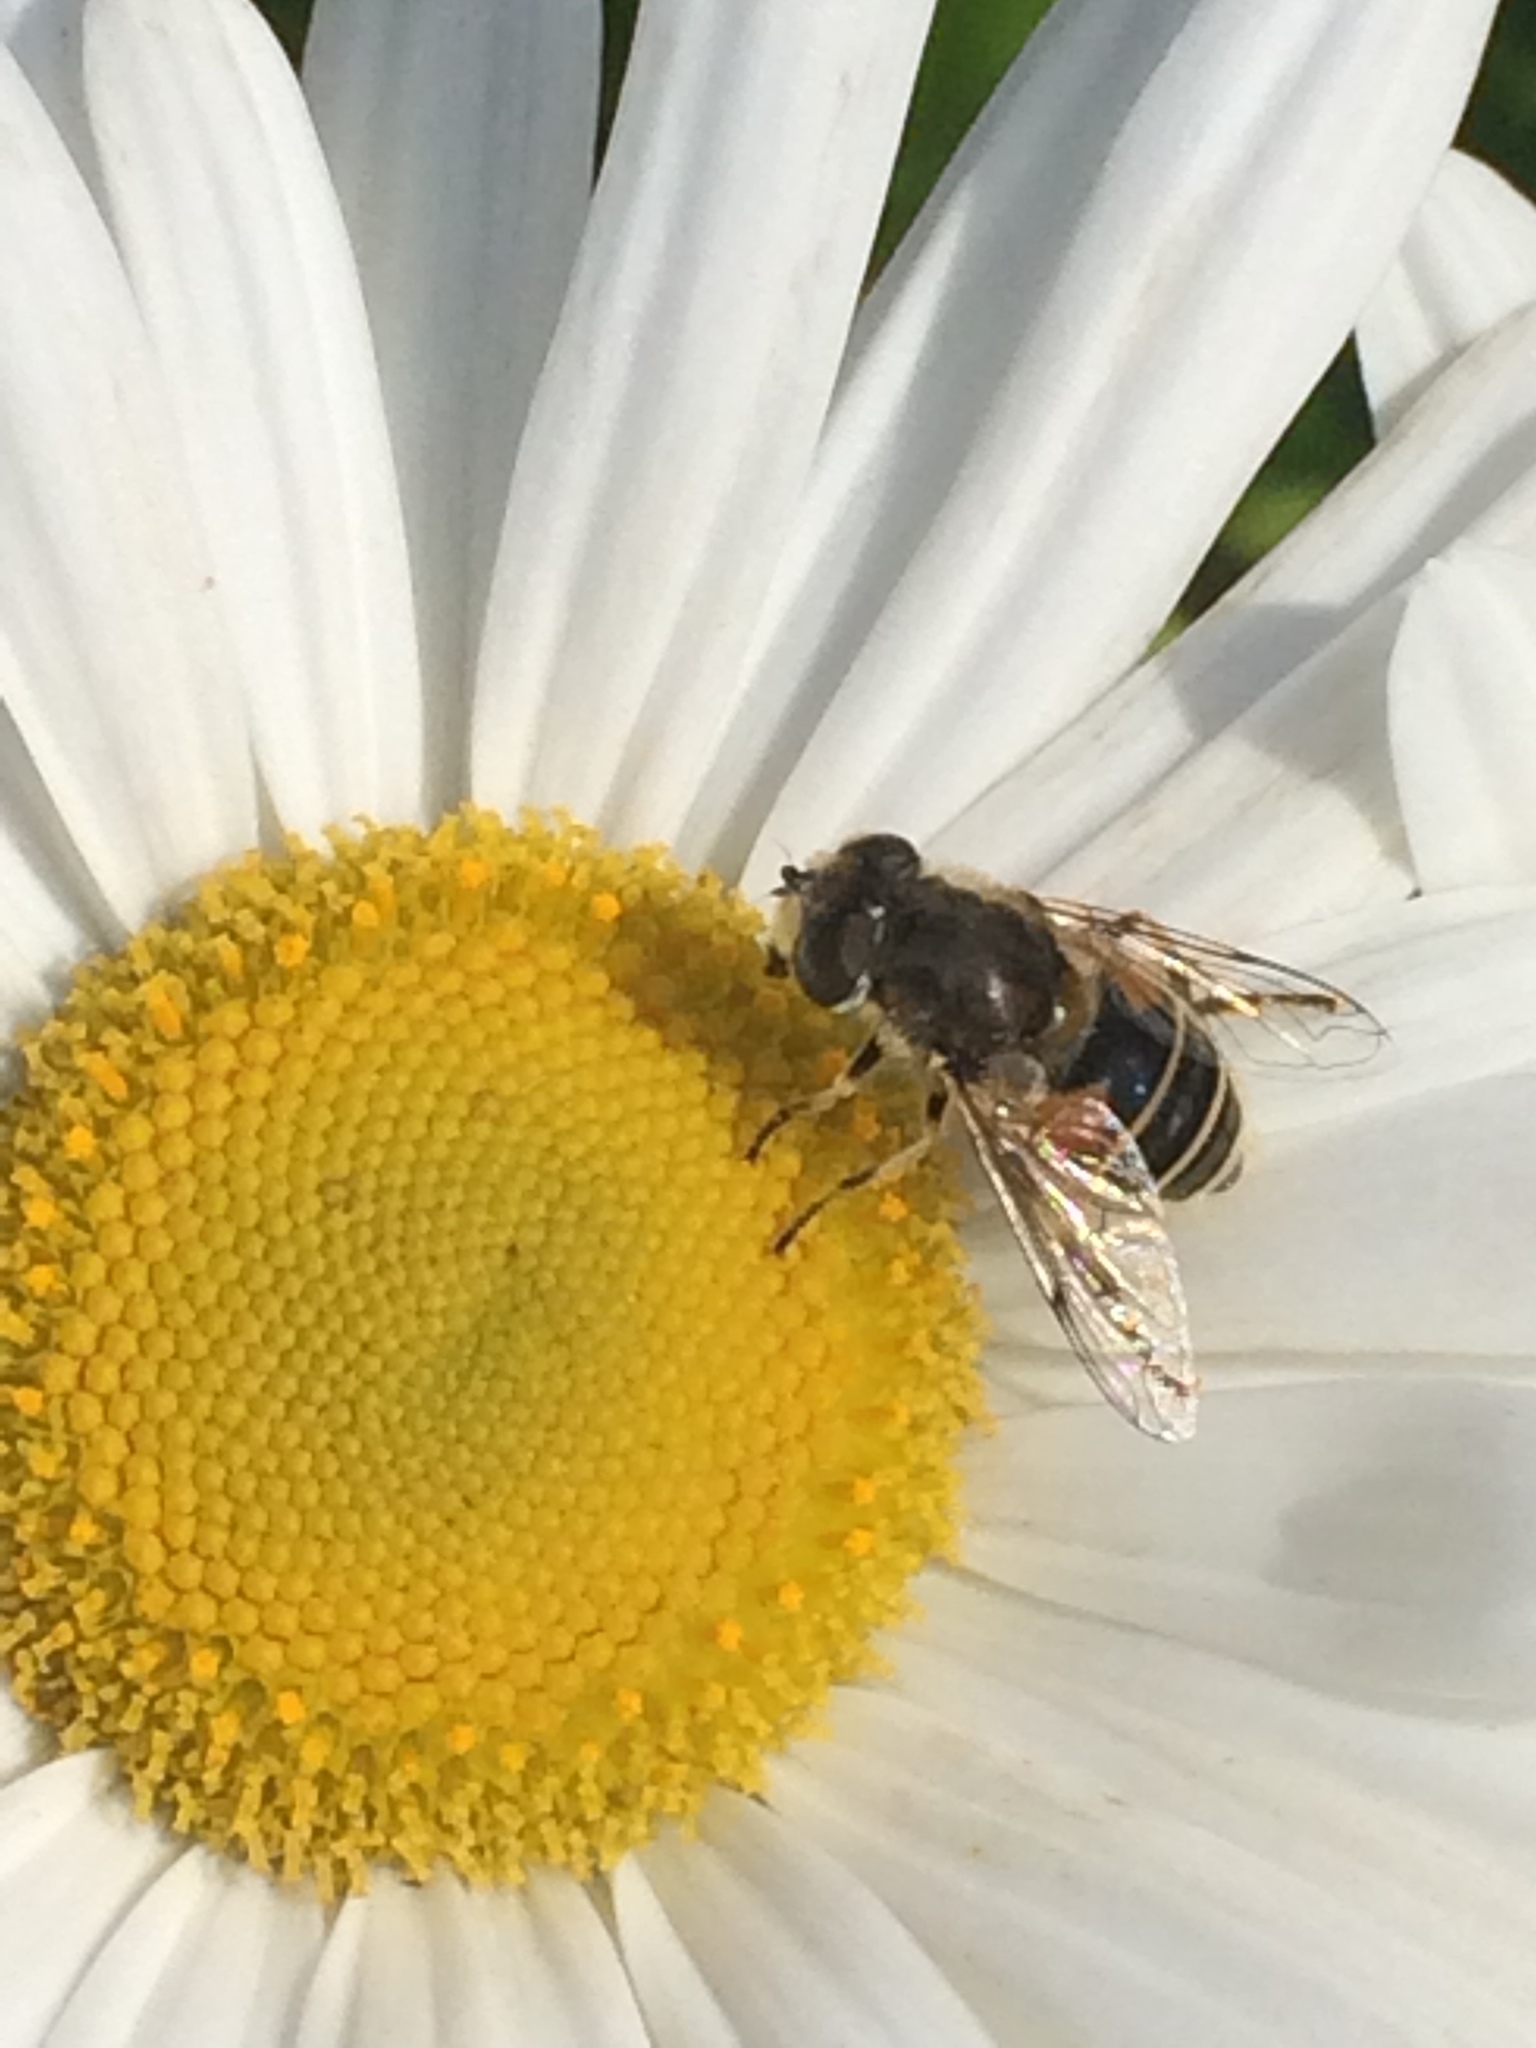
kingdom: Animalia
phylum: Arthropoda
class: Insecta
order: Diptera
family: Syrphidae
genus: Eristalis
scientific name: Eristalis nemorum
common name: Orange-spined drone fly
